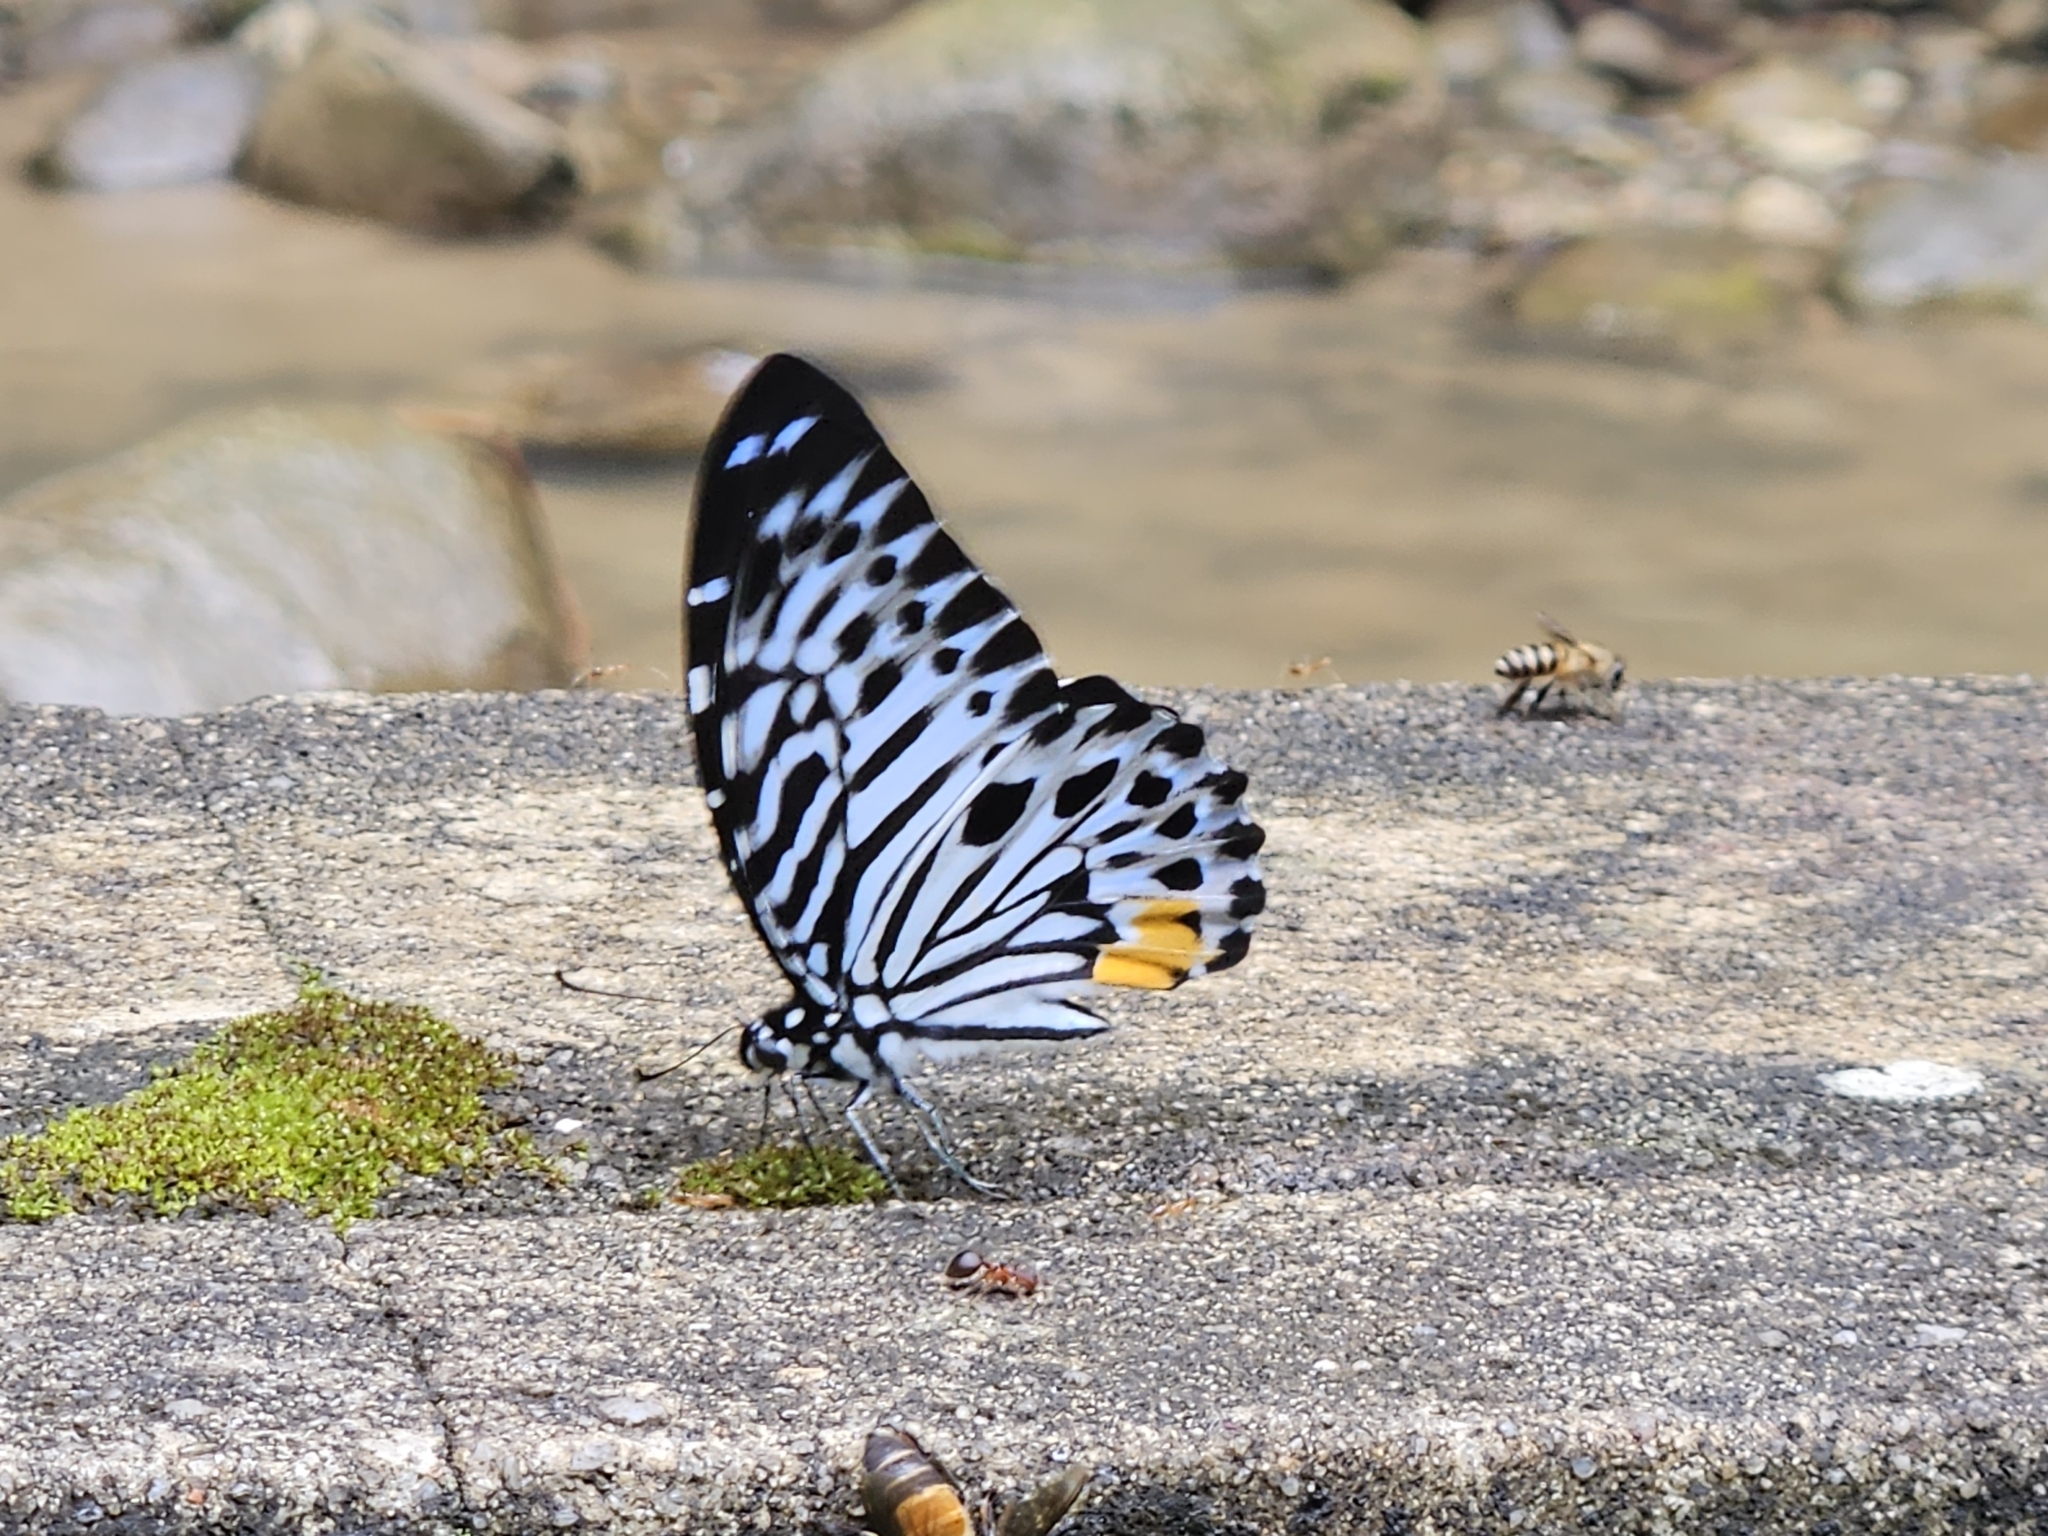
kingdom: Animalia
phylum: Arthropoda
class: Insecta
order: Lepidoptera
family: Papilionidae
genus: Graphium
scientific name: Graphium delesserti
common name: Malayan zebra
